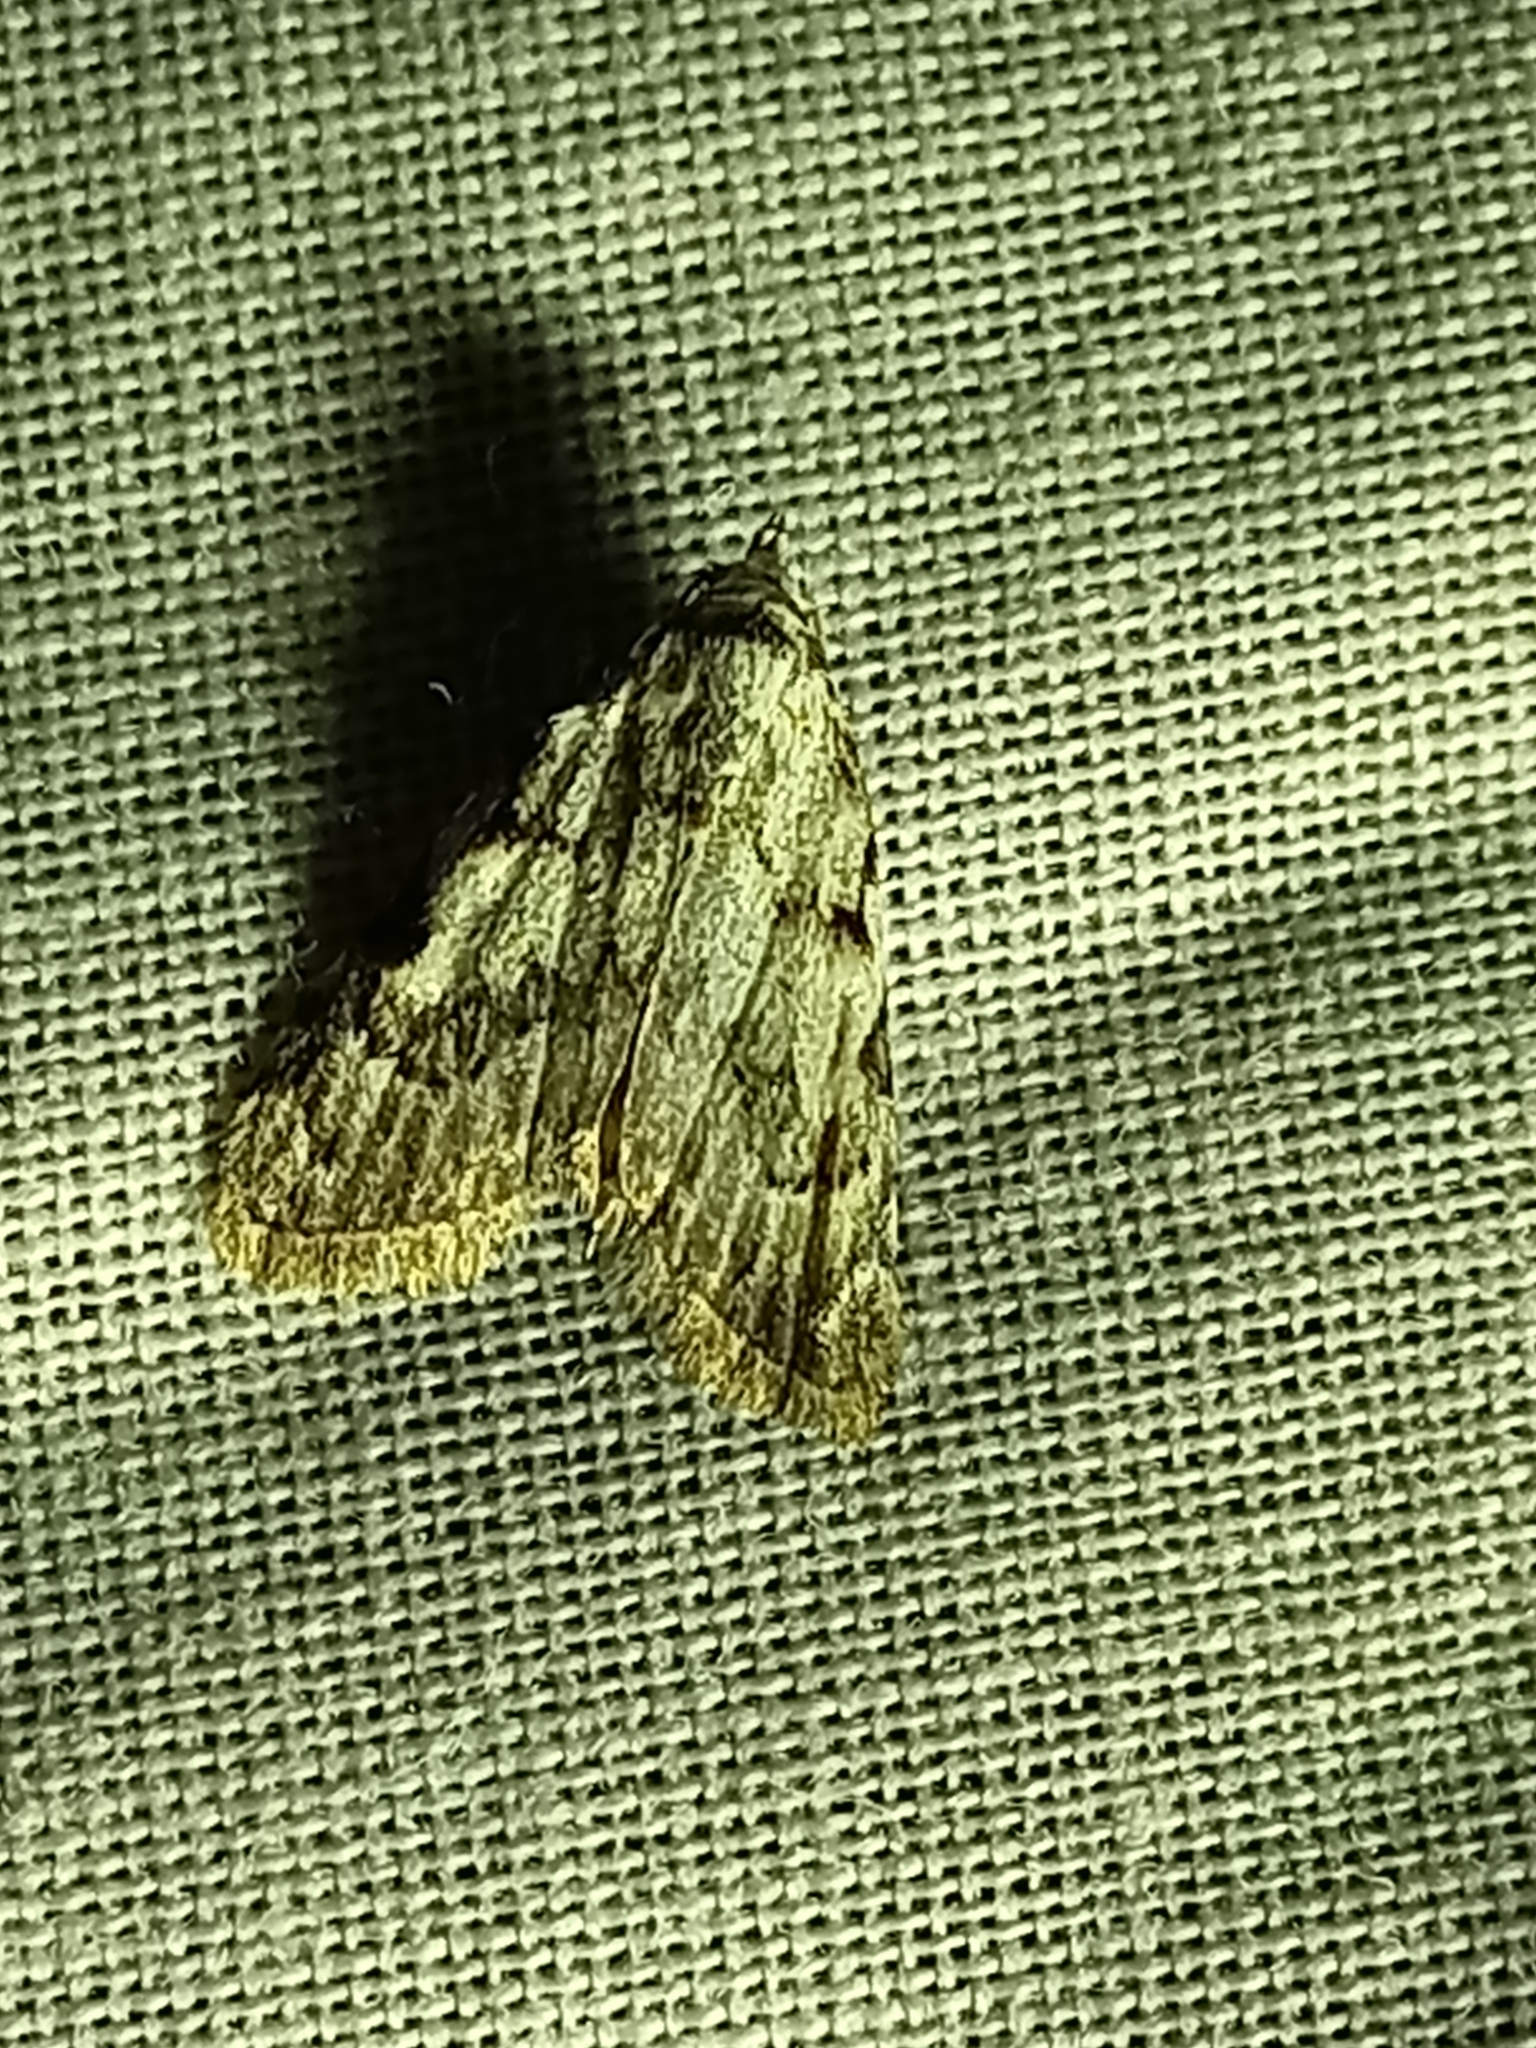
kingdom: Animalia
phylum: Arthropoda
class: Insecta
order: Lepidoptera
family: Nolidae
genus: Nola
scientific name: Nola confusalis
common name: Least black arches
